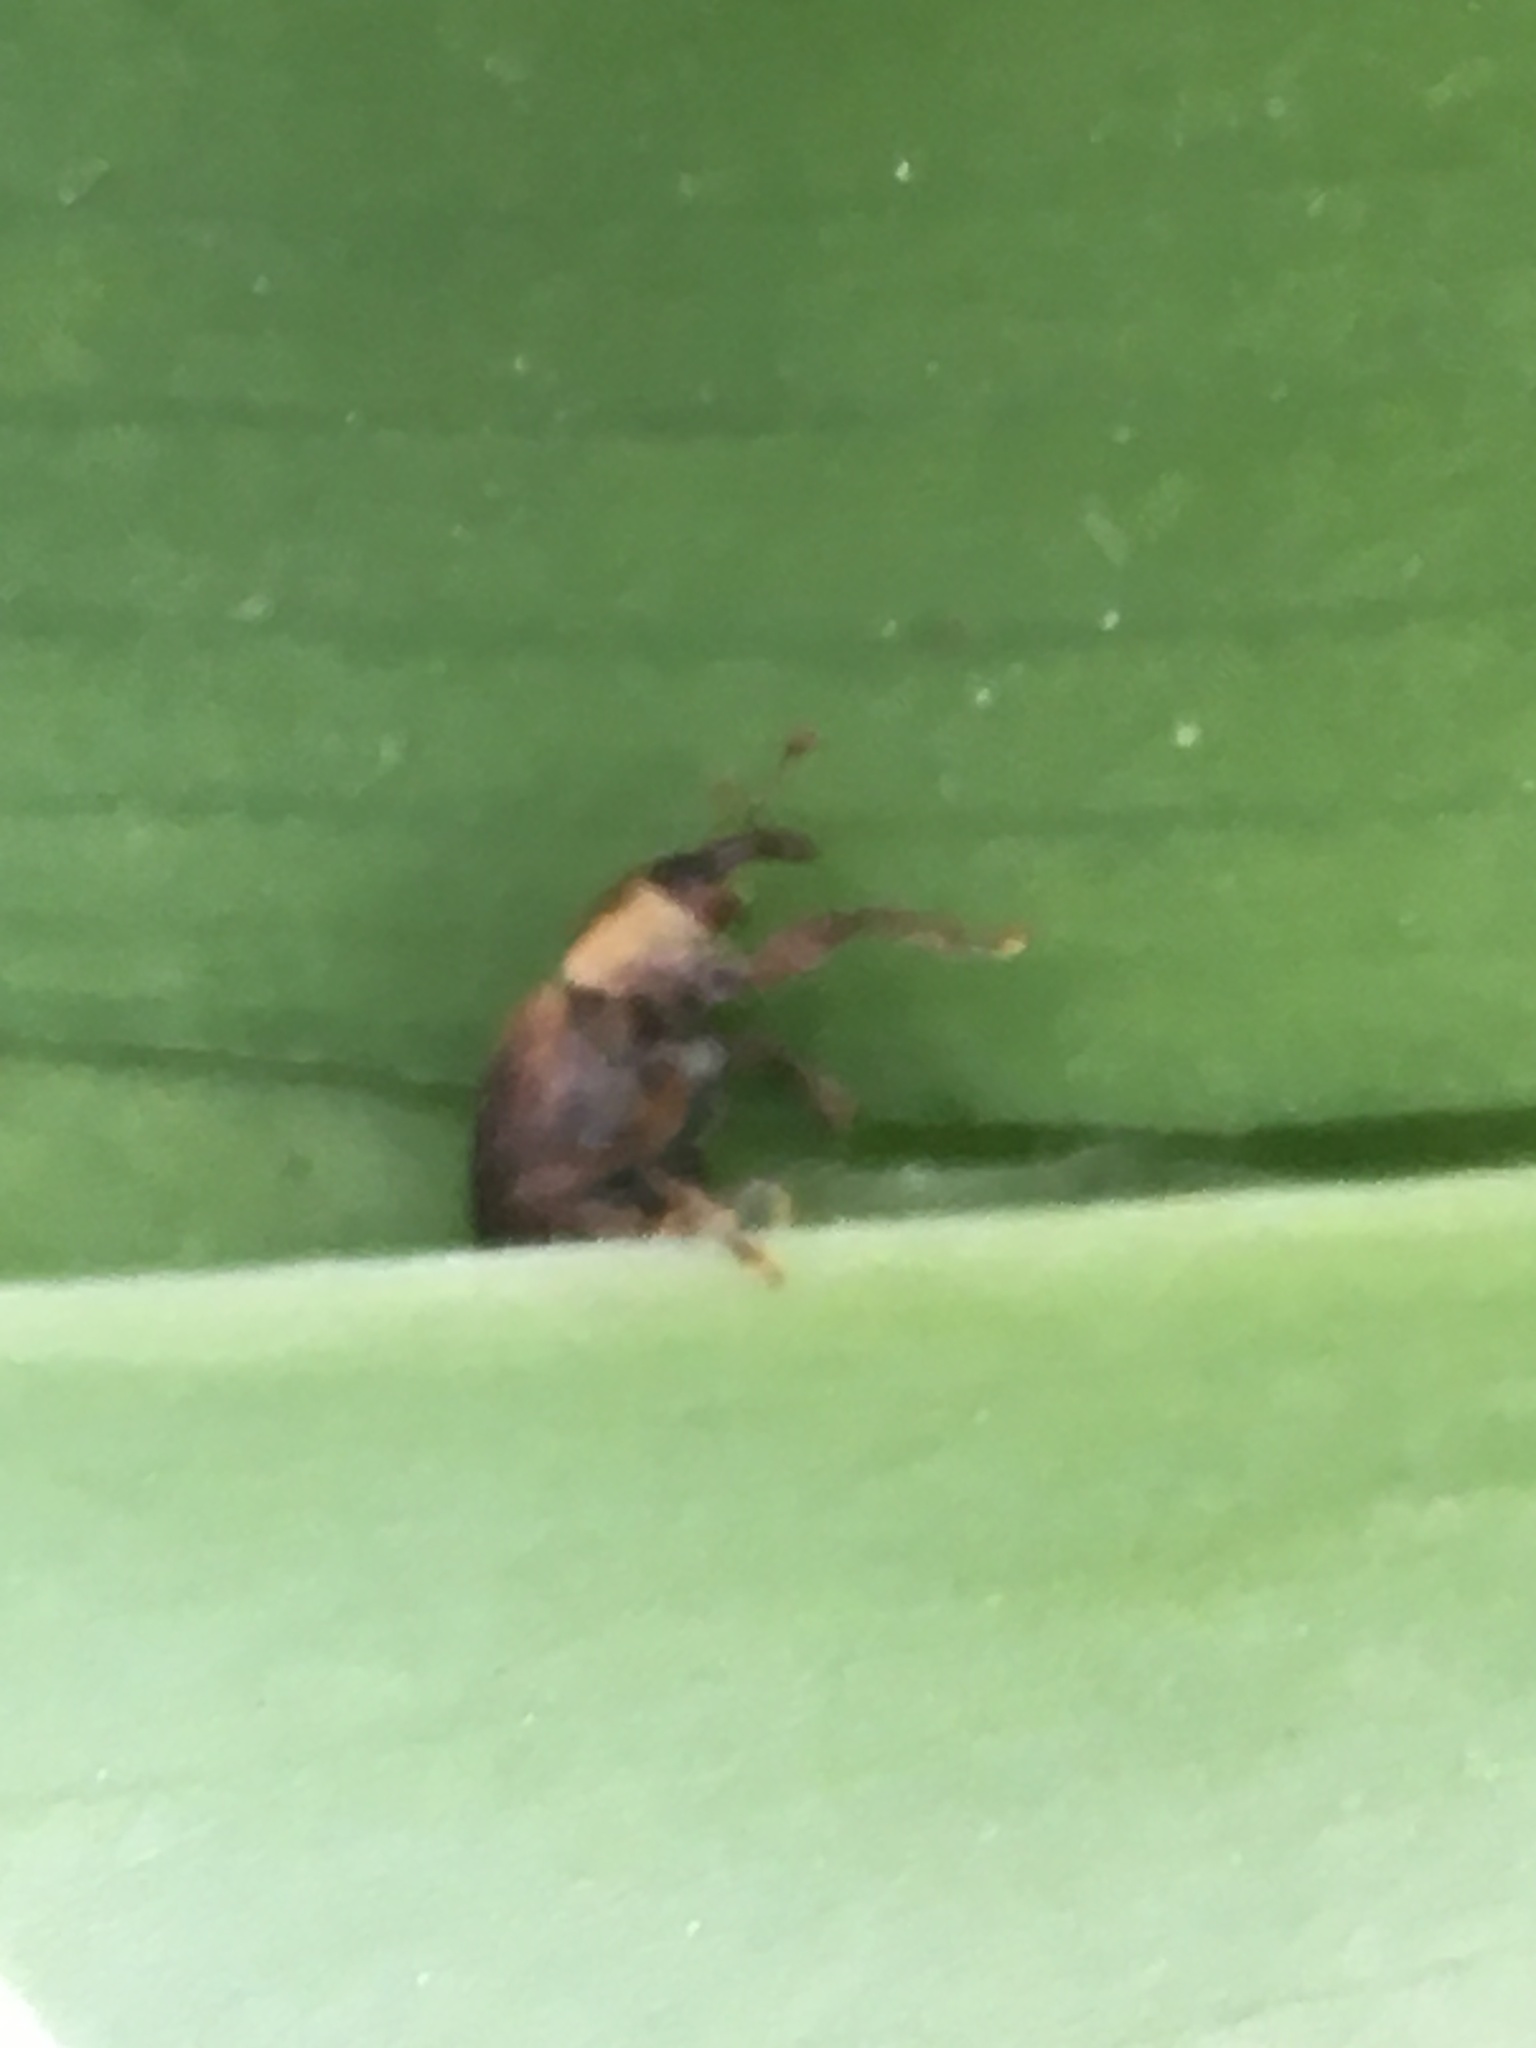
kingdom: Animalia
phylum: Arthropoda
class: Insecta
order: Coleoptera
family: Curculionidae
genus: Lignyodes
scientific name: Lignyodes enucleator
